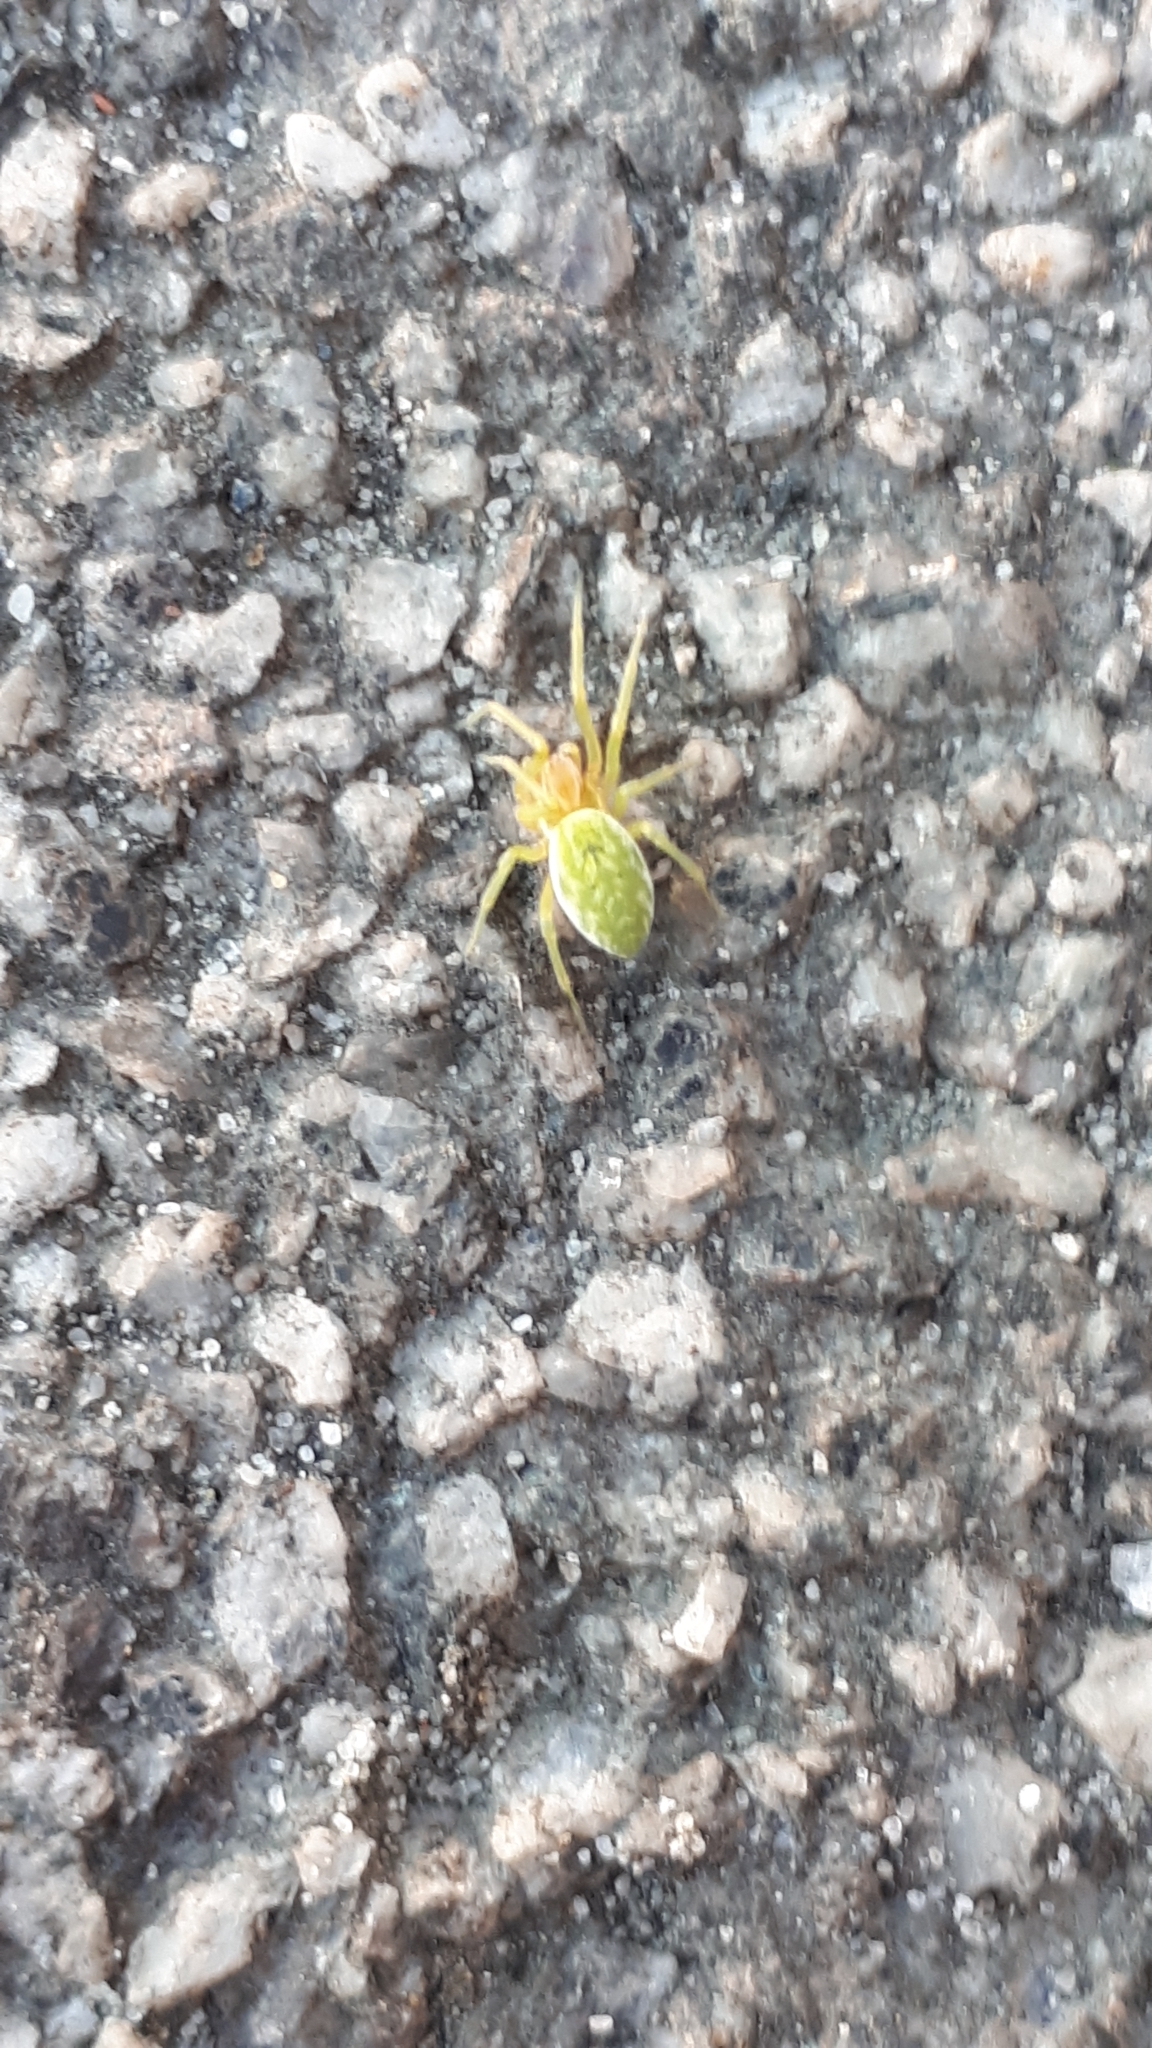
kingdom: Animalia
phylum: Arthropoda
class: Arachnida
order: Araneae
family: Dictynidae
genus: Nigma
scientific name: Nigma walckenaeri
